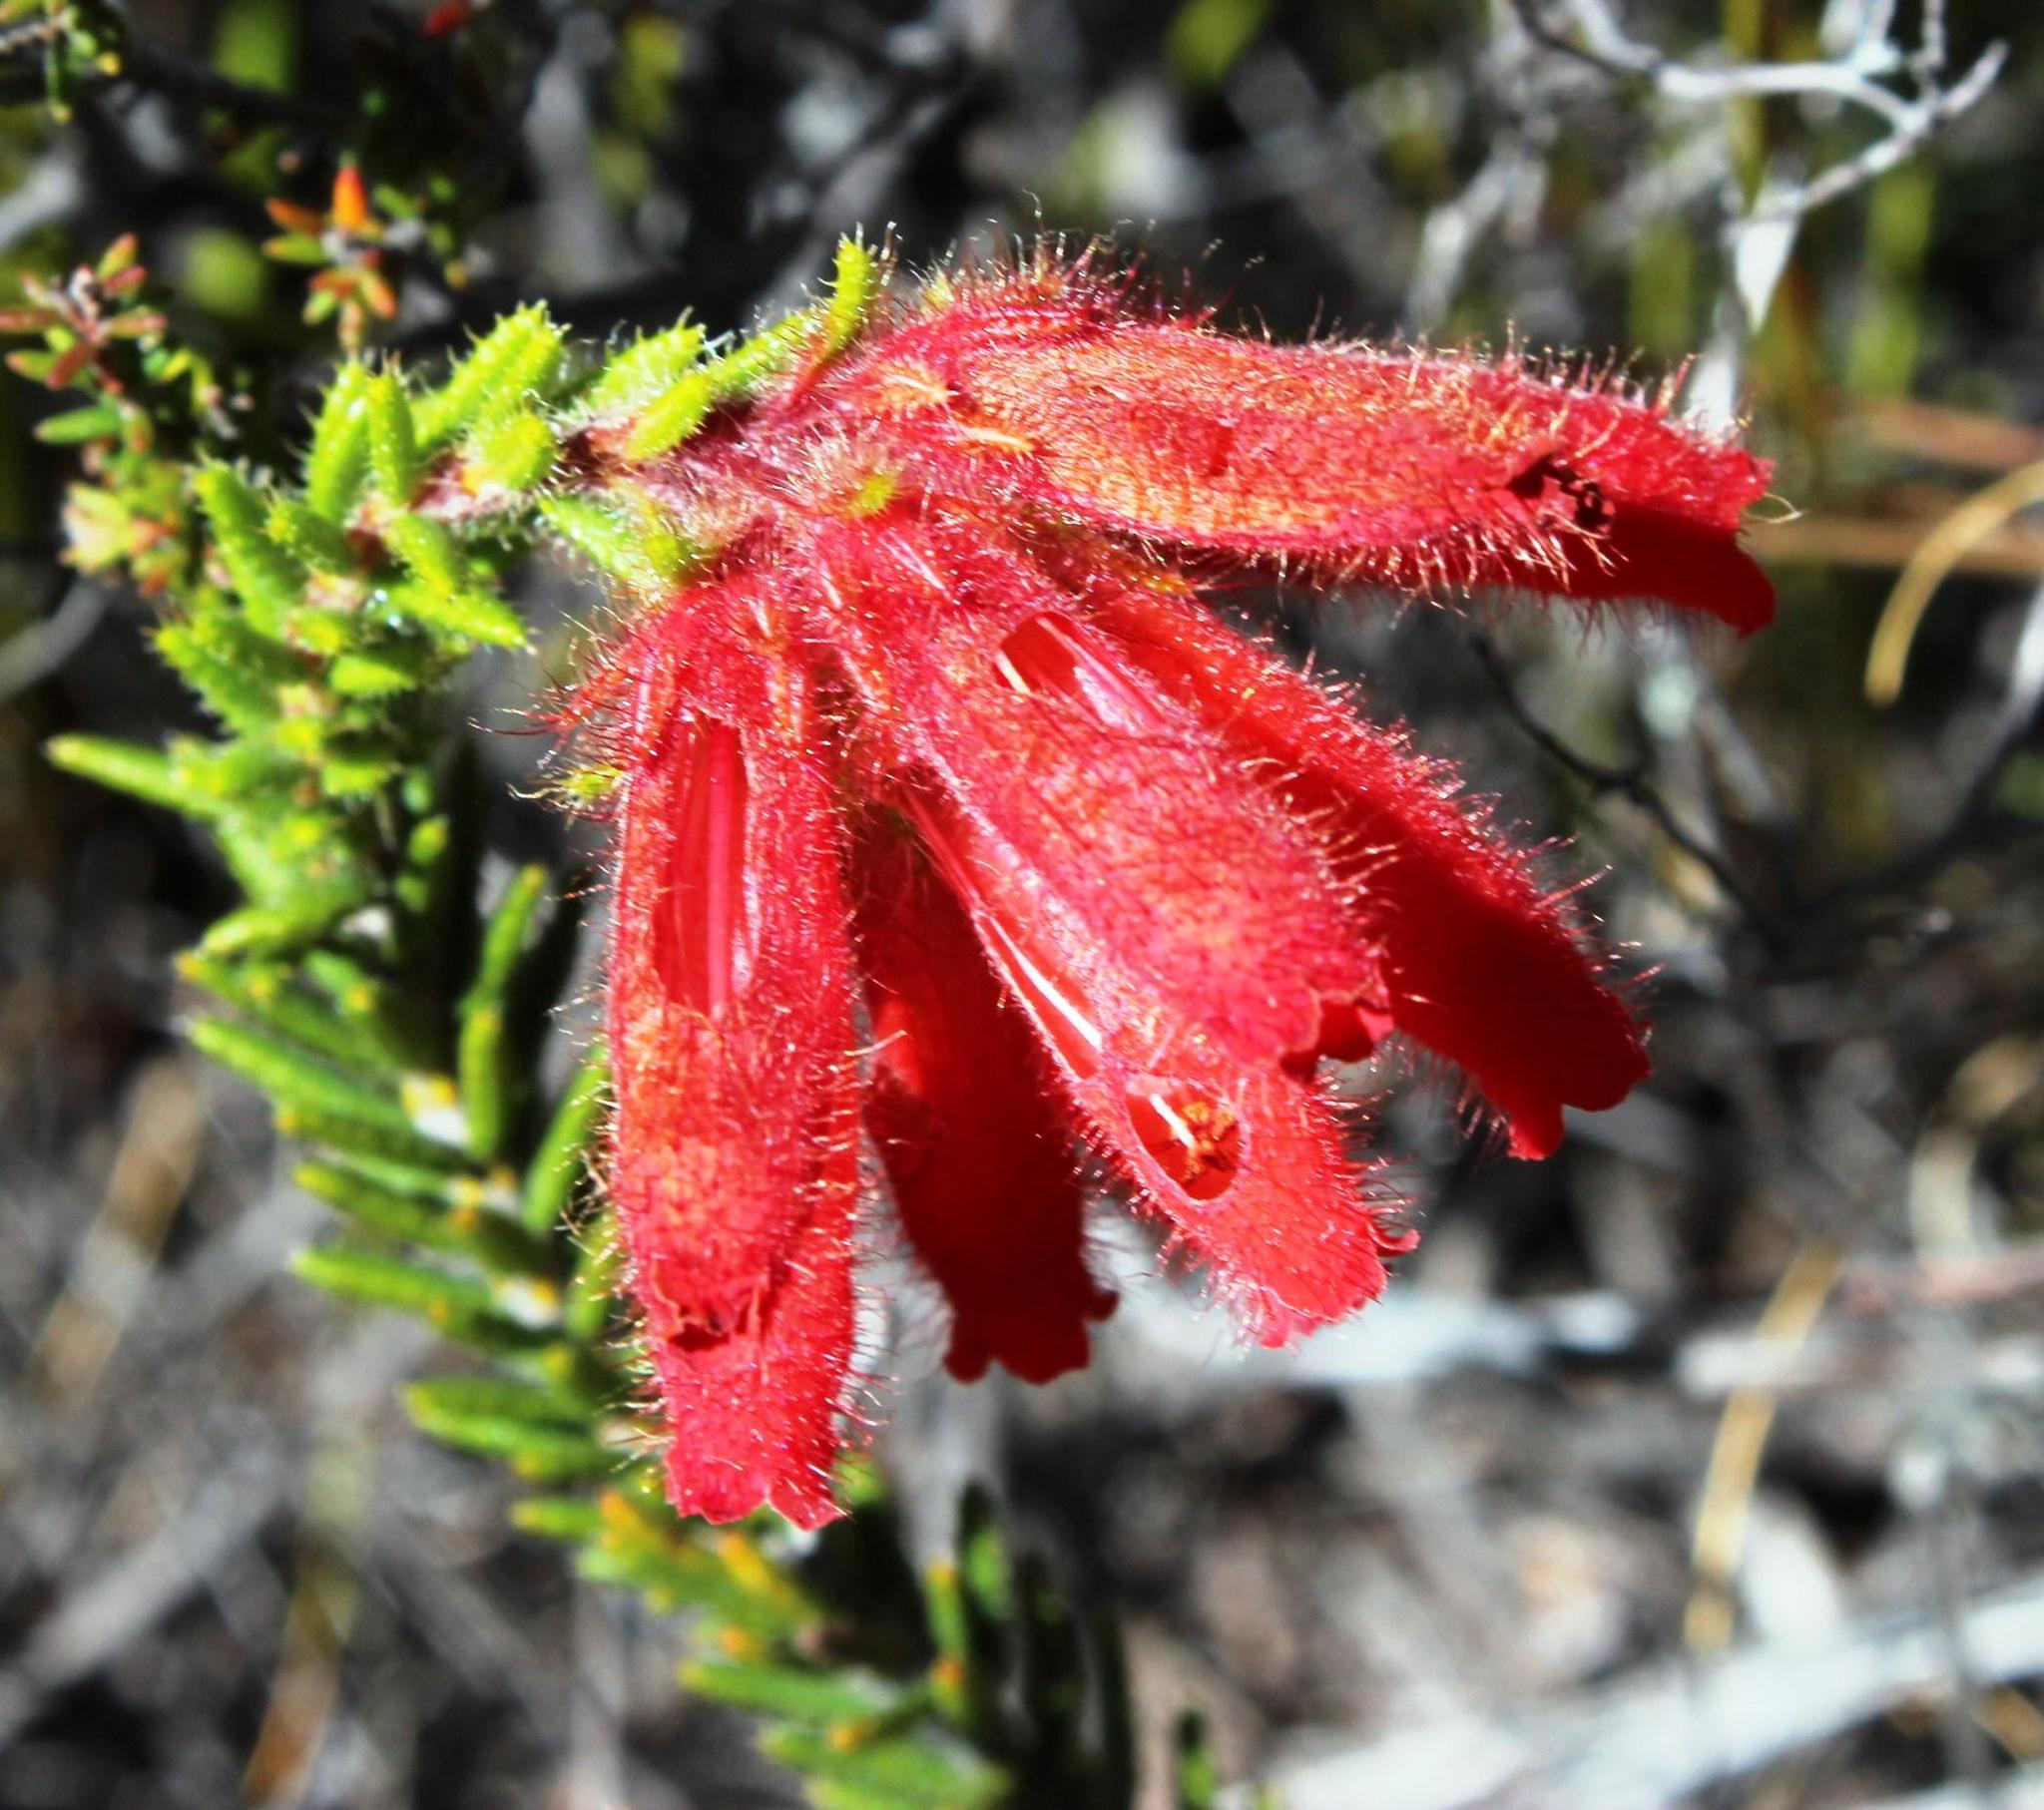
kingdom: Plantae
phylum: Tracheophyta
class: Magnoliopsida
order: Ericales
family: Ericaceae
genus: Erica
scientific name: Erica cerinthoides
